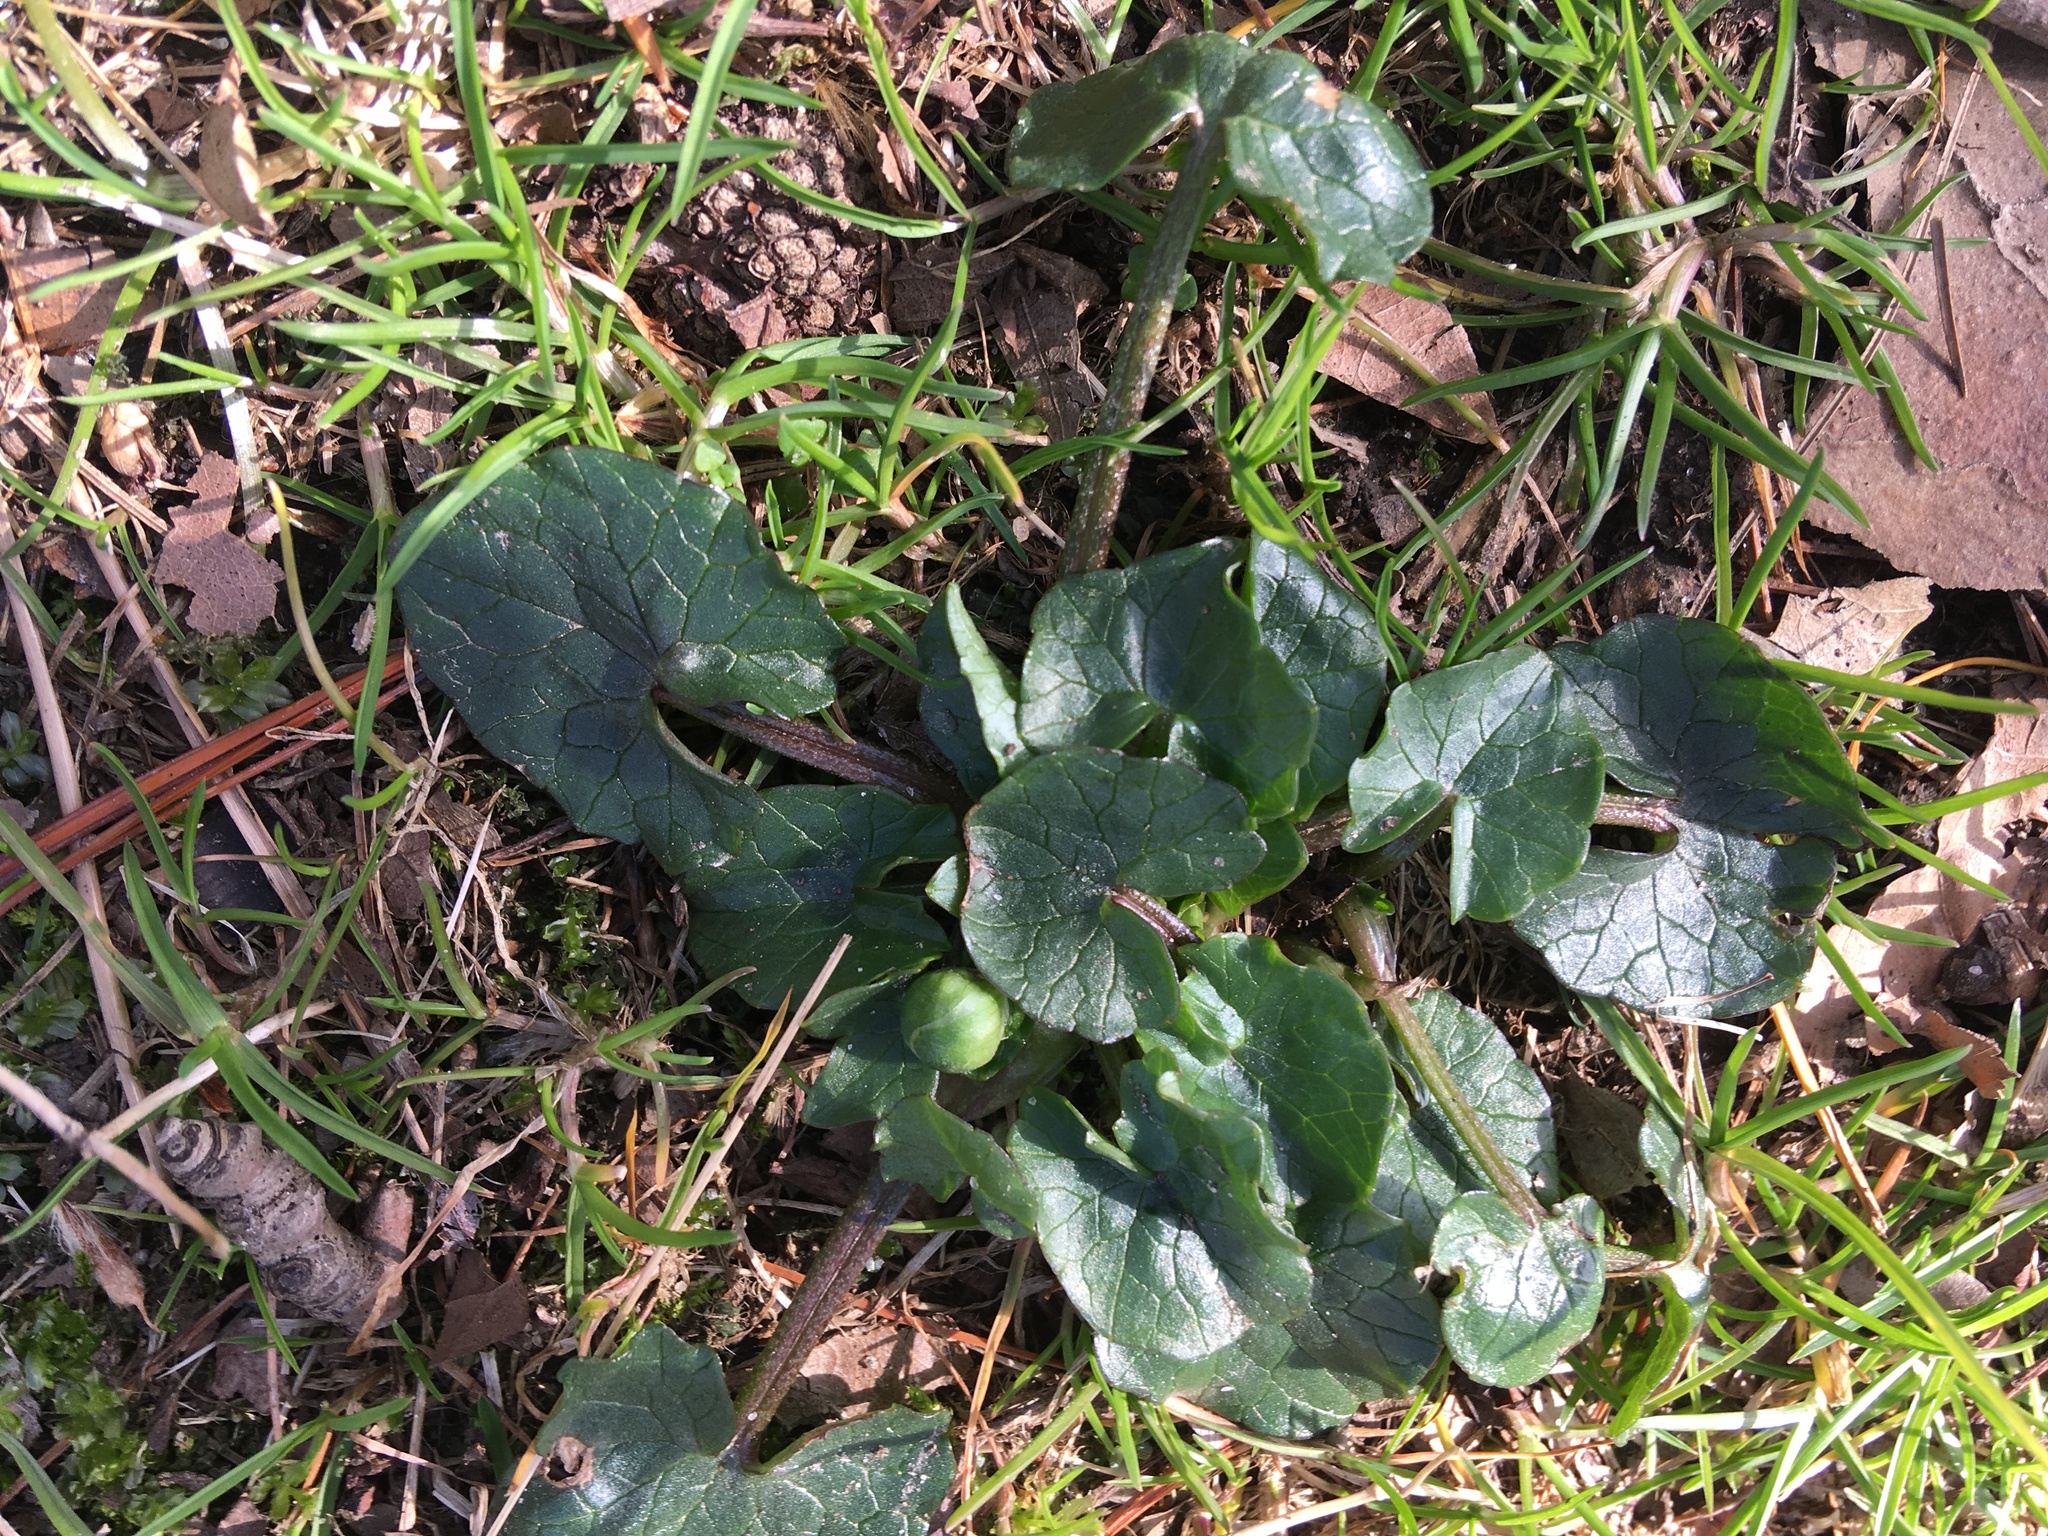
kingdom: Plantae
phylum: Tracheophyta
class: Magnoliopsida
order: Ranunculales
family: Ranunculaceae
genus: Ficaria
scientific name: Ficaria verna
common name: Lesser celandine
